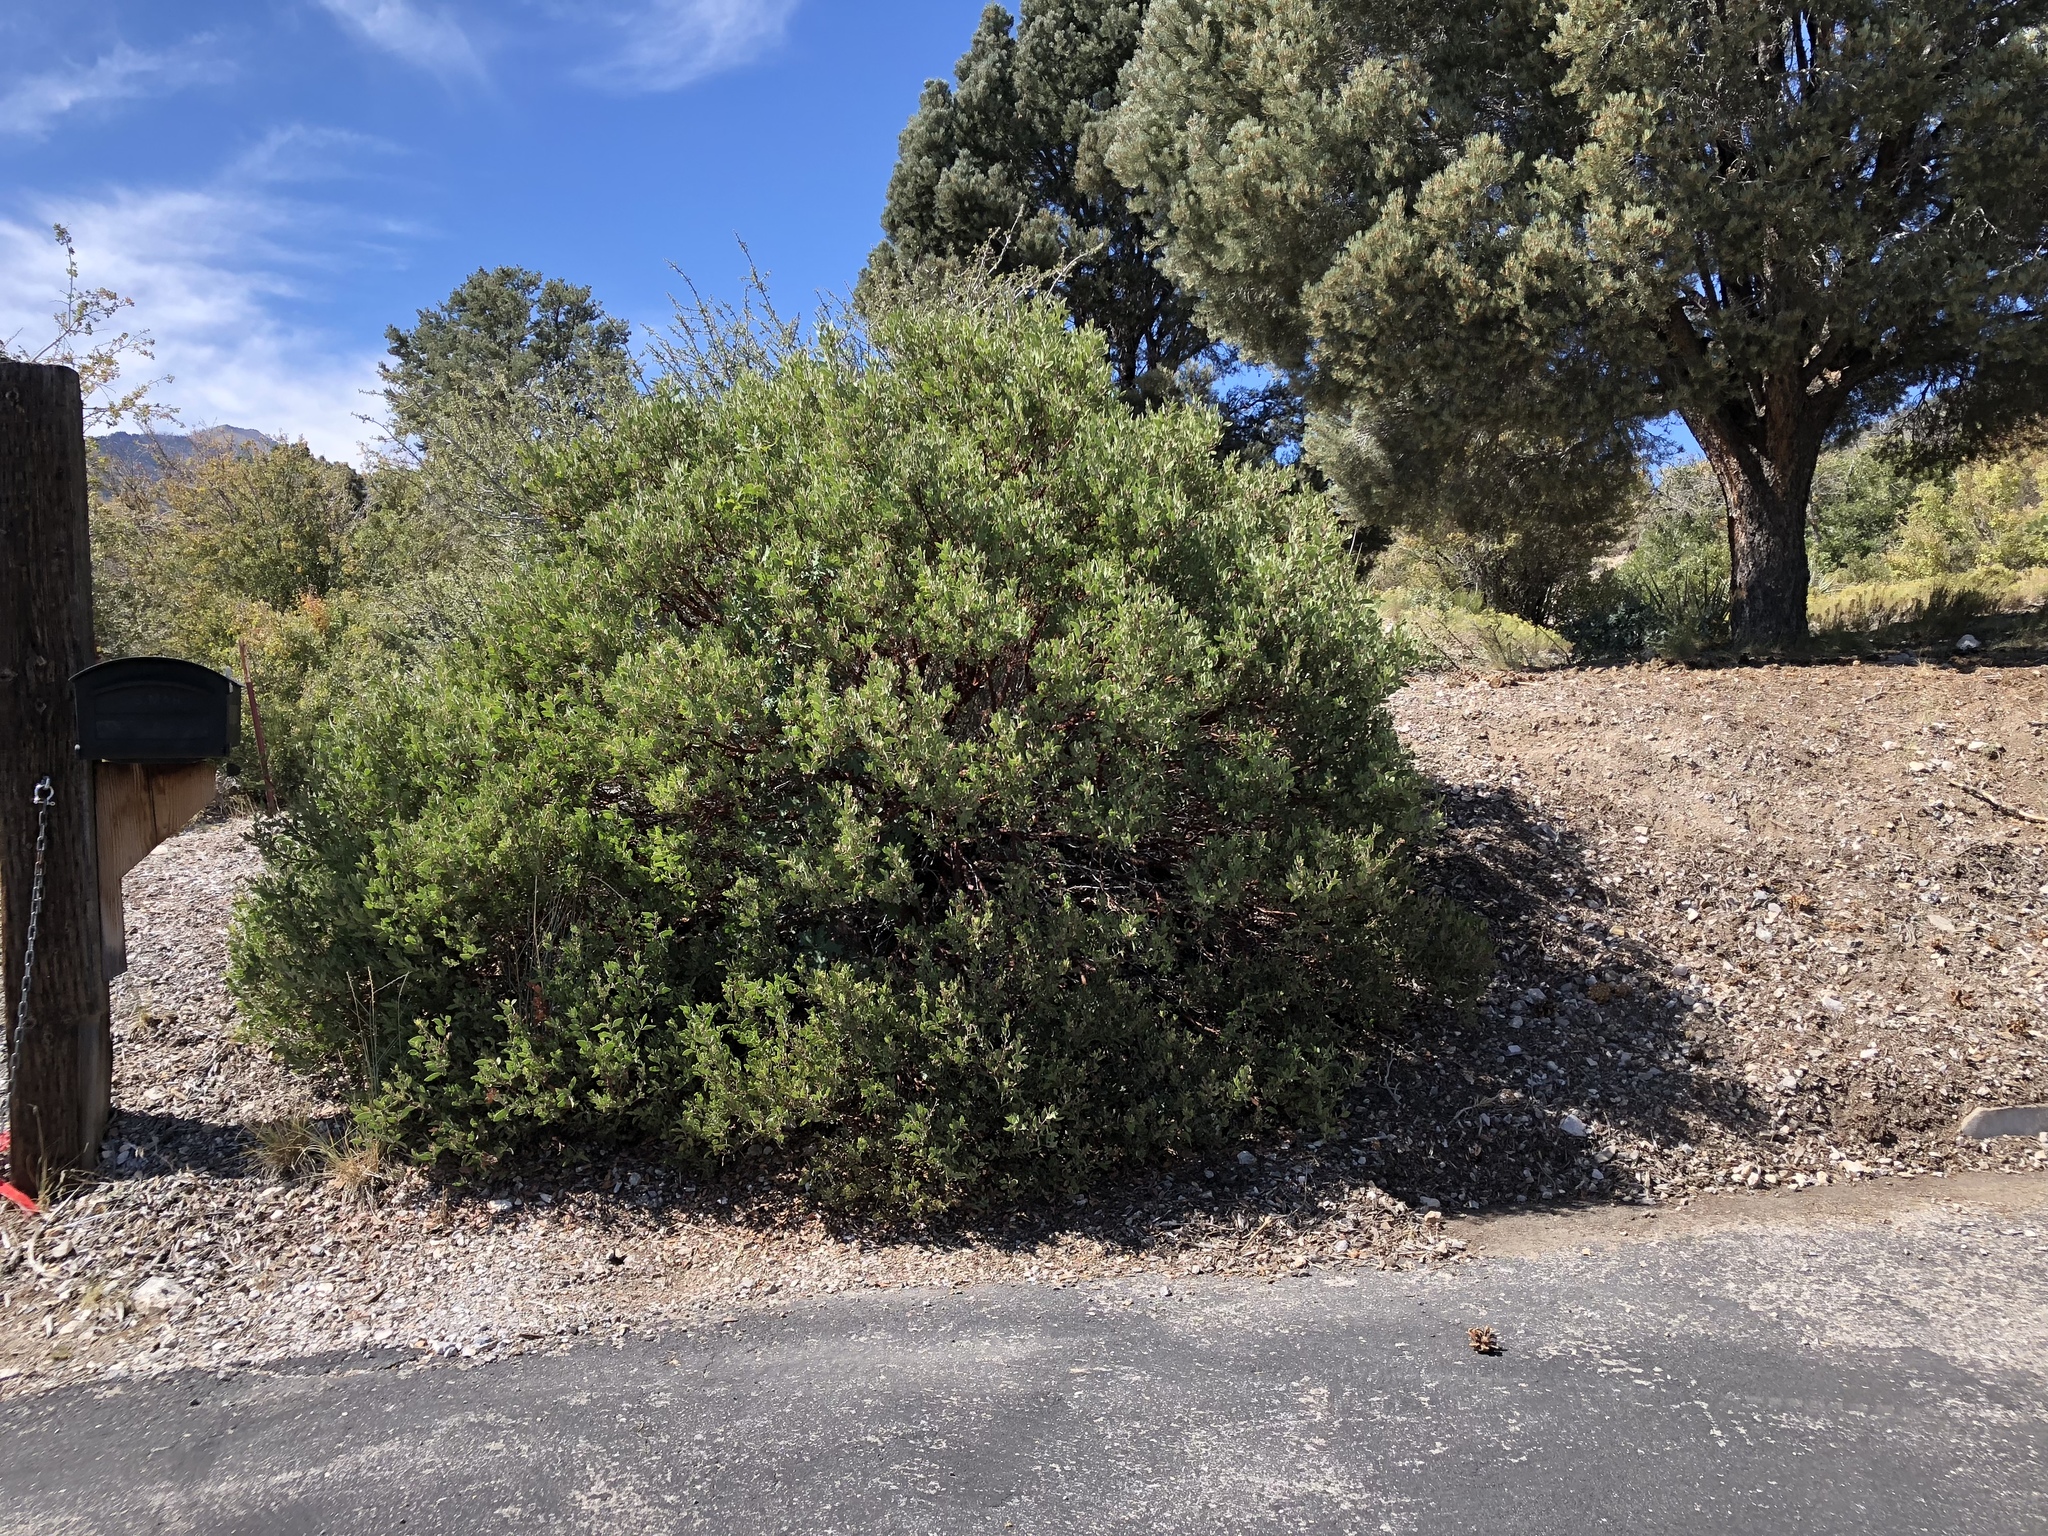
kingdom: Plantae
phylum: Tracheophyta
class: Magnoliopsida
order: Ericales
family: Ericaceae
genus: Arctostaphylos
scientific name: Arctostaphylos pungens
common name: Mexican manzanita
